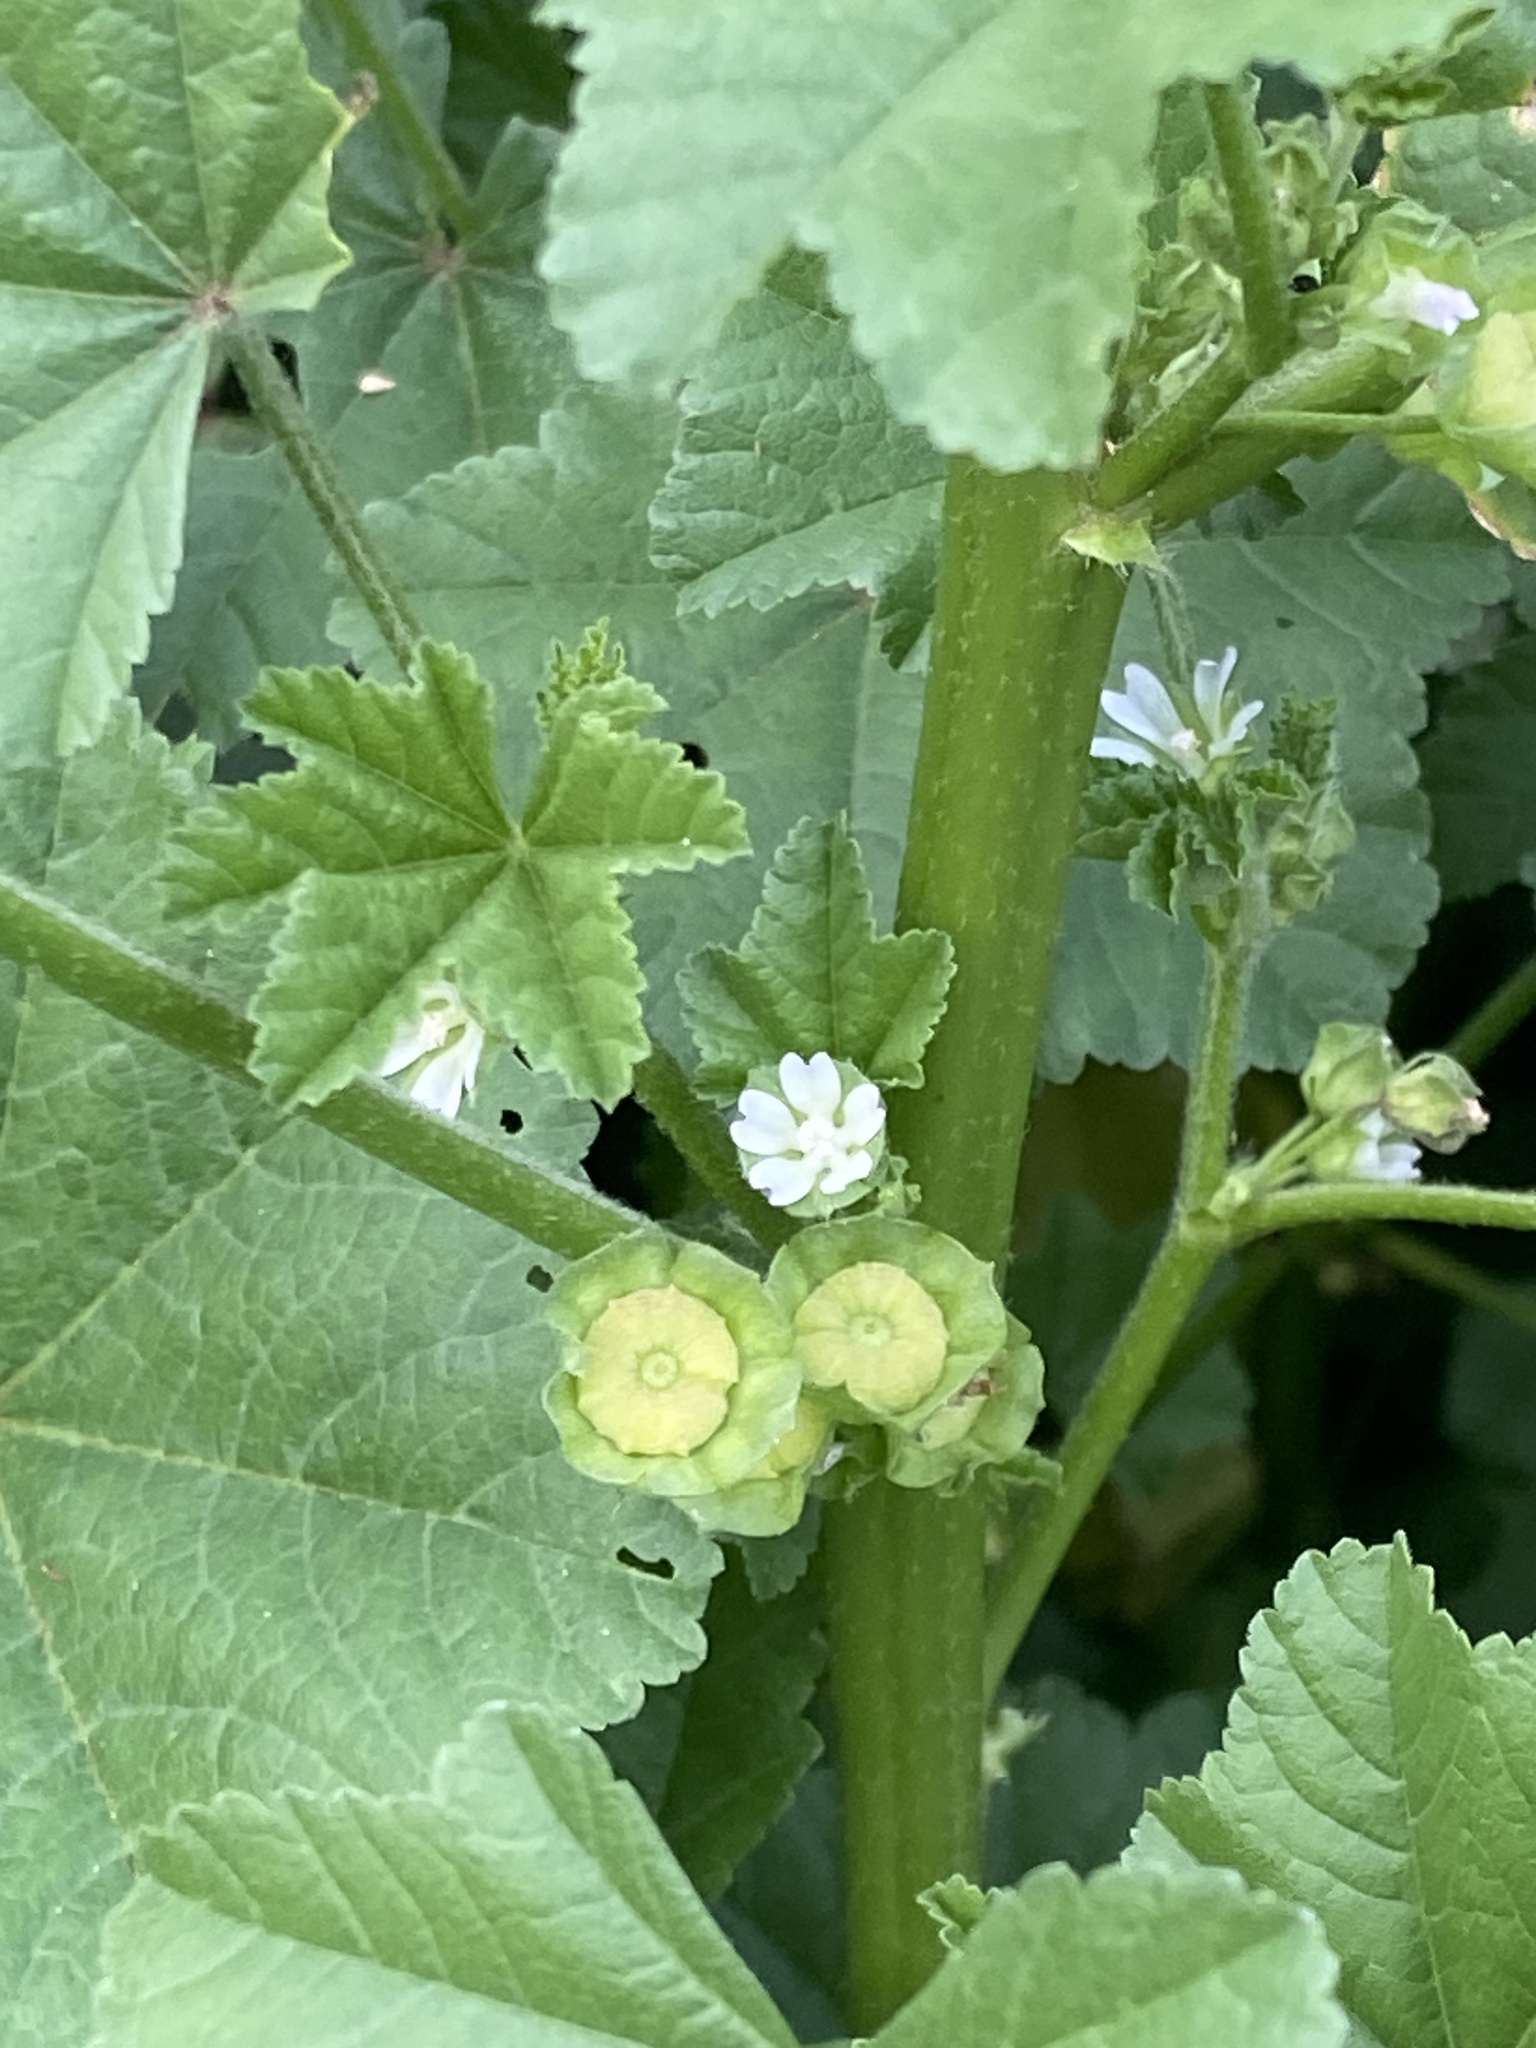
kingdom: Plantae
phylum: Tracheophyta
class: Magnoliopsida
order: Malvales
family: Malvaceae
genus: Malva
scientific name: Malva parviflora
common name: Least mallow
